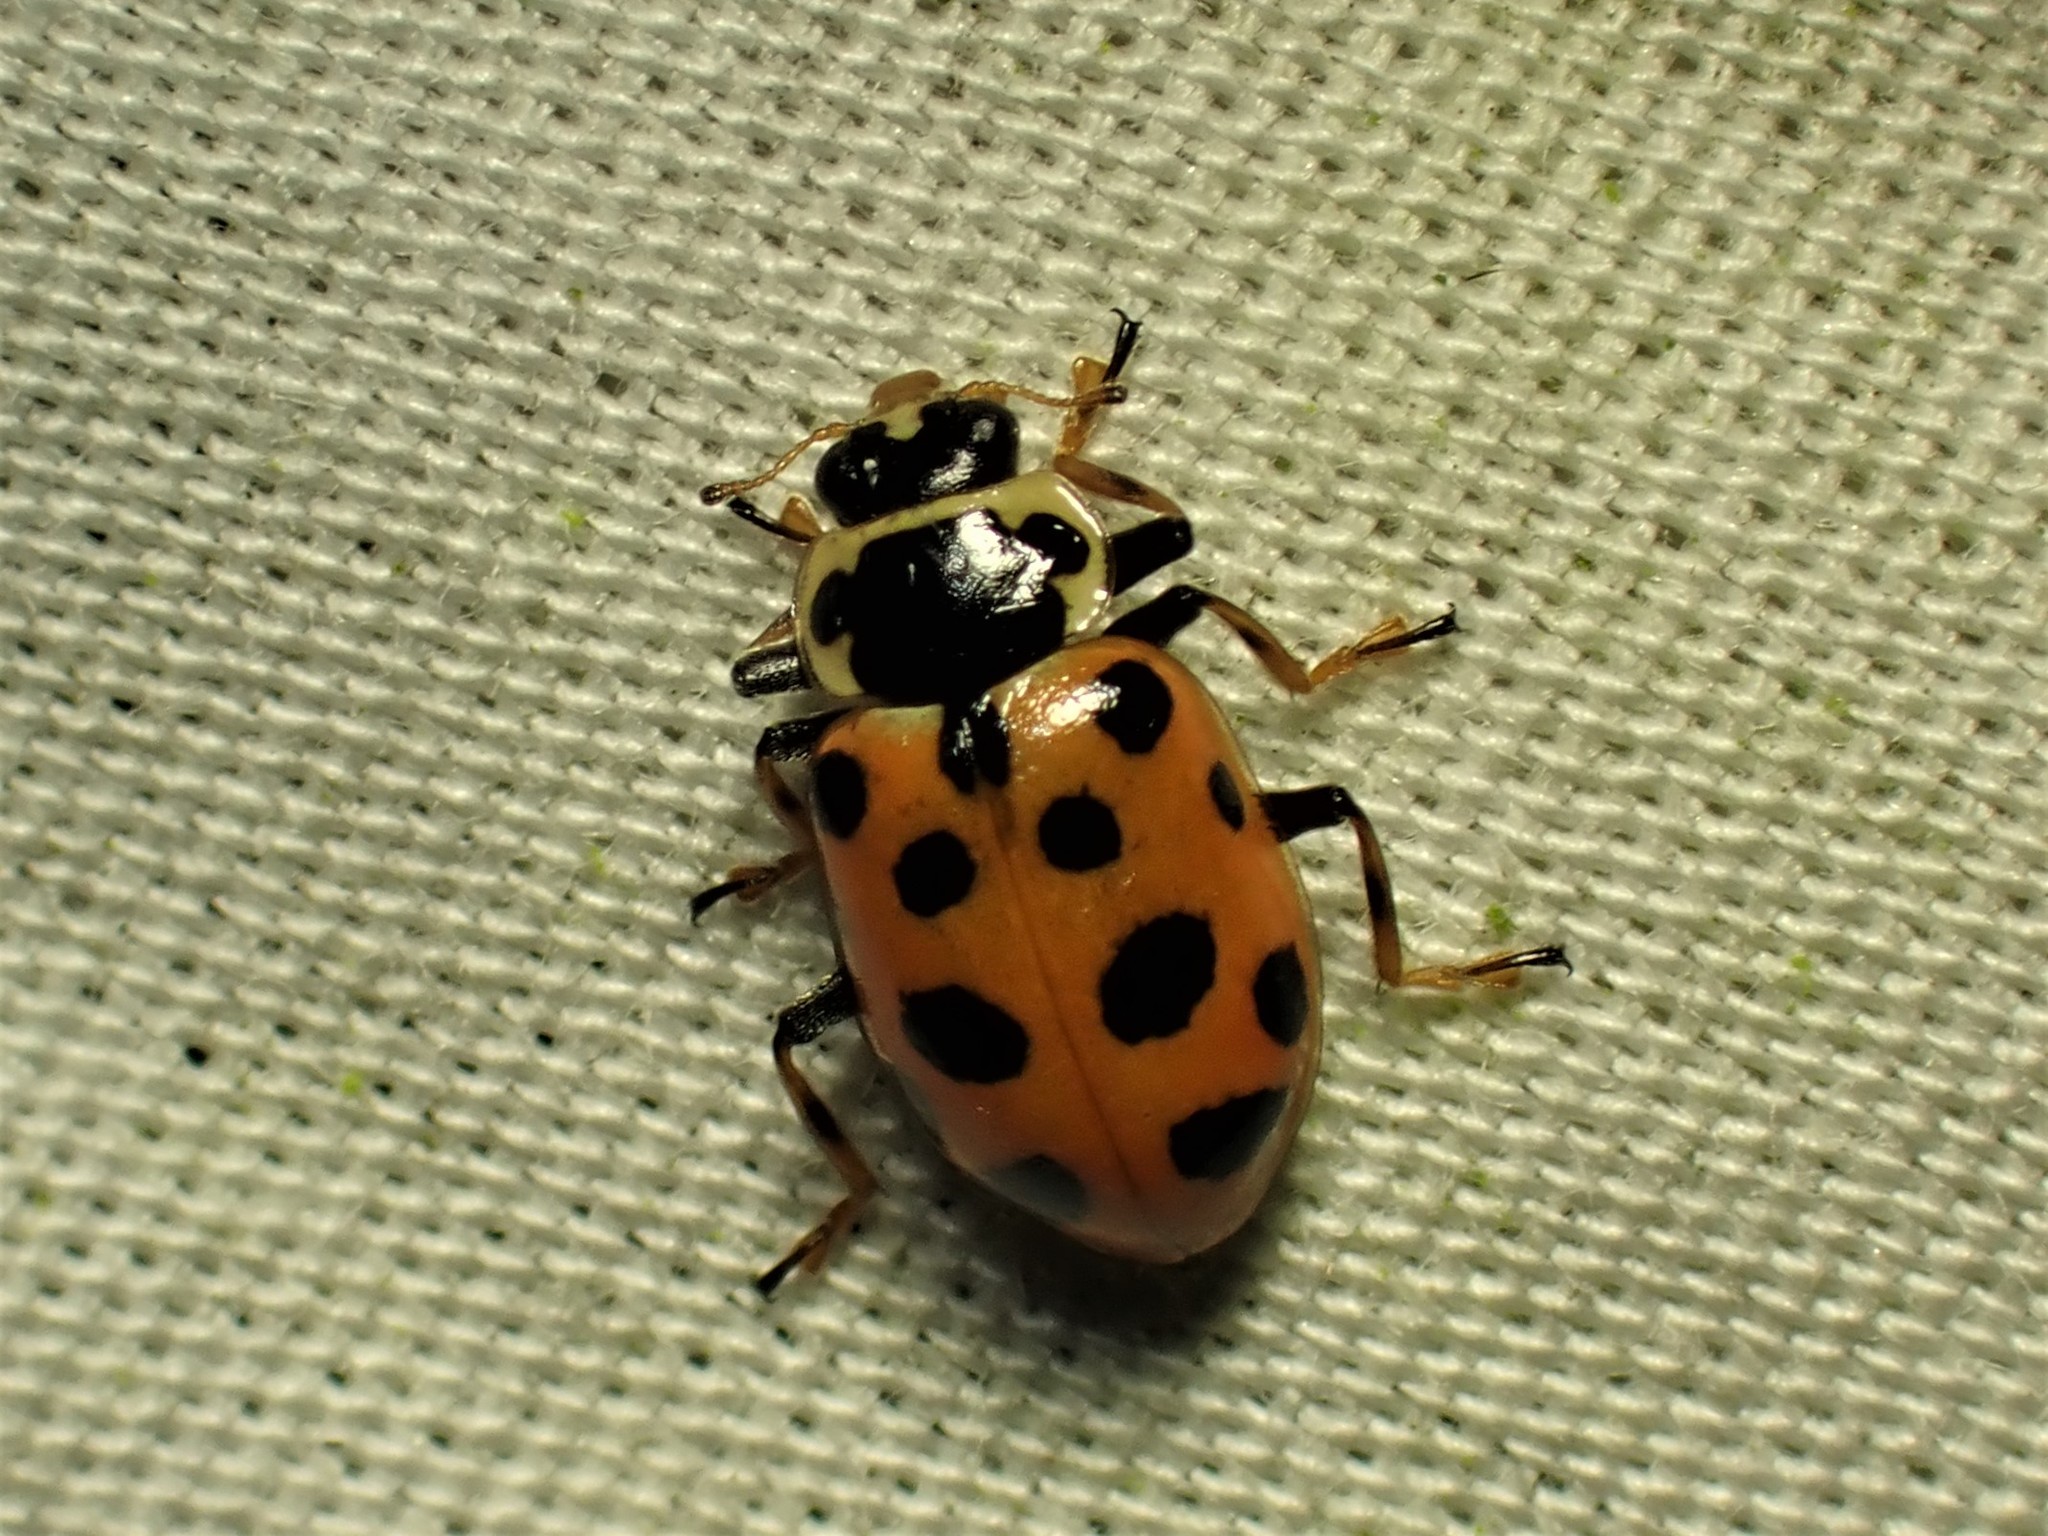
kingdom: Animalia
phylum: Arthropoda
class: Insecta
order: Coleoptera
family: Coccinellidae
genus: Hippodamia
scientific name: Hippodamia tredecimpunctata
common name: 13-spot ladybird
